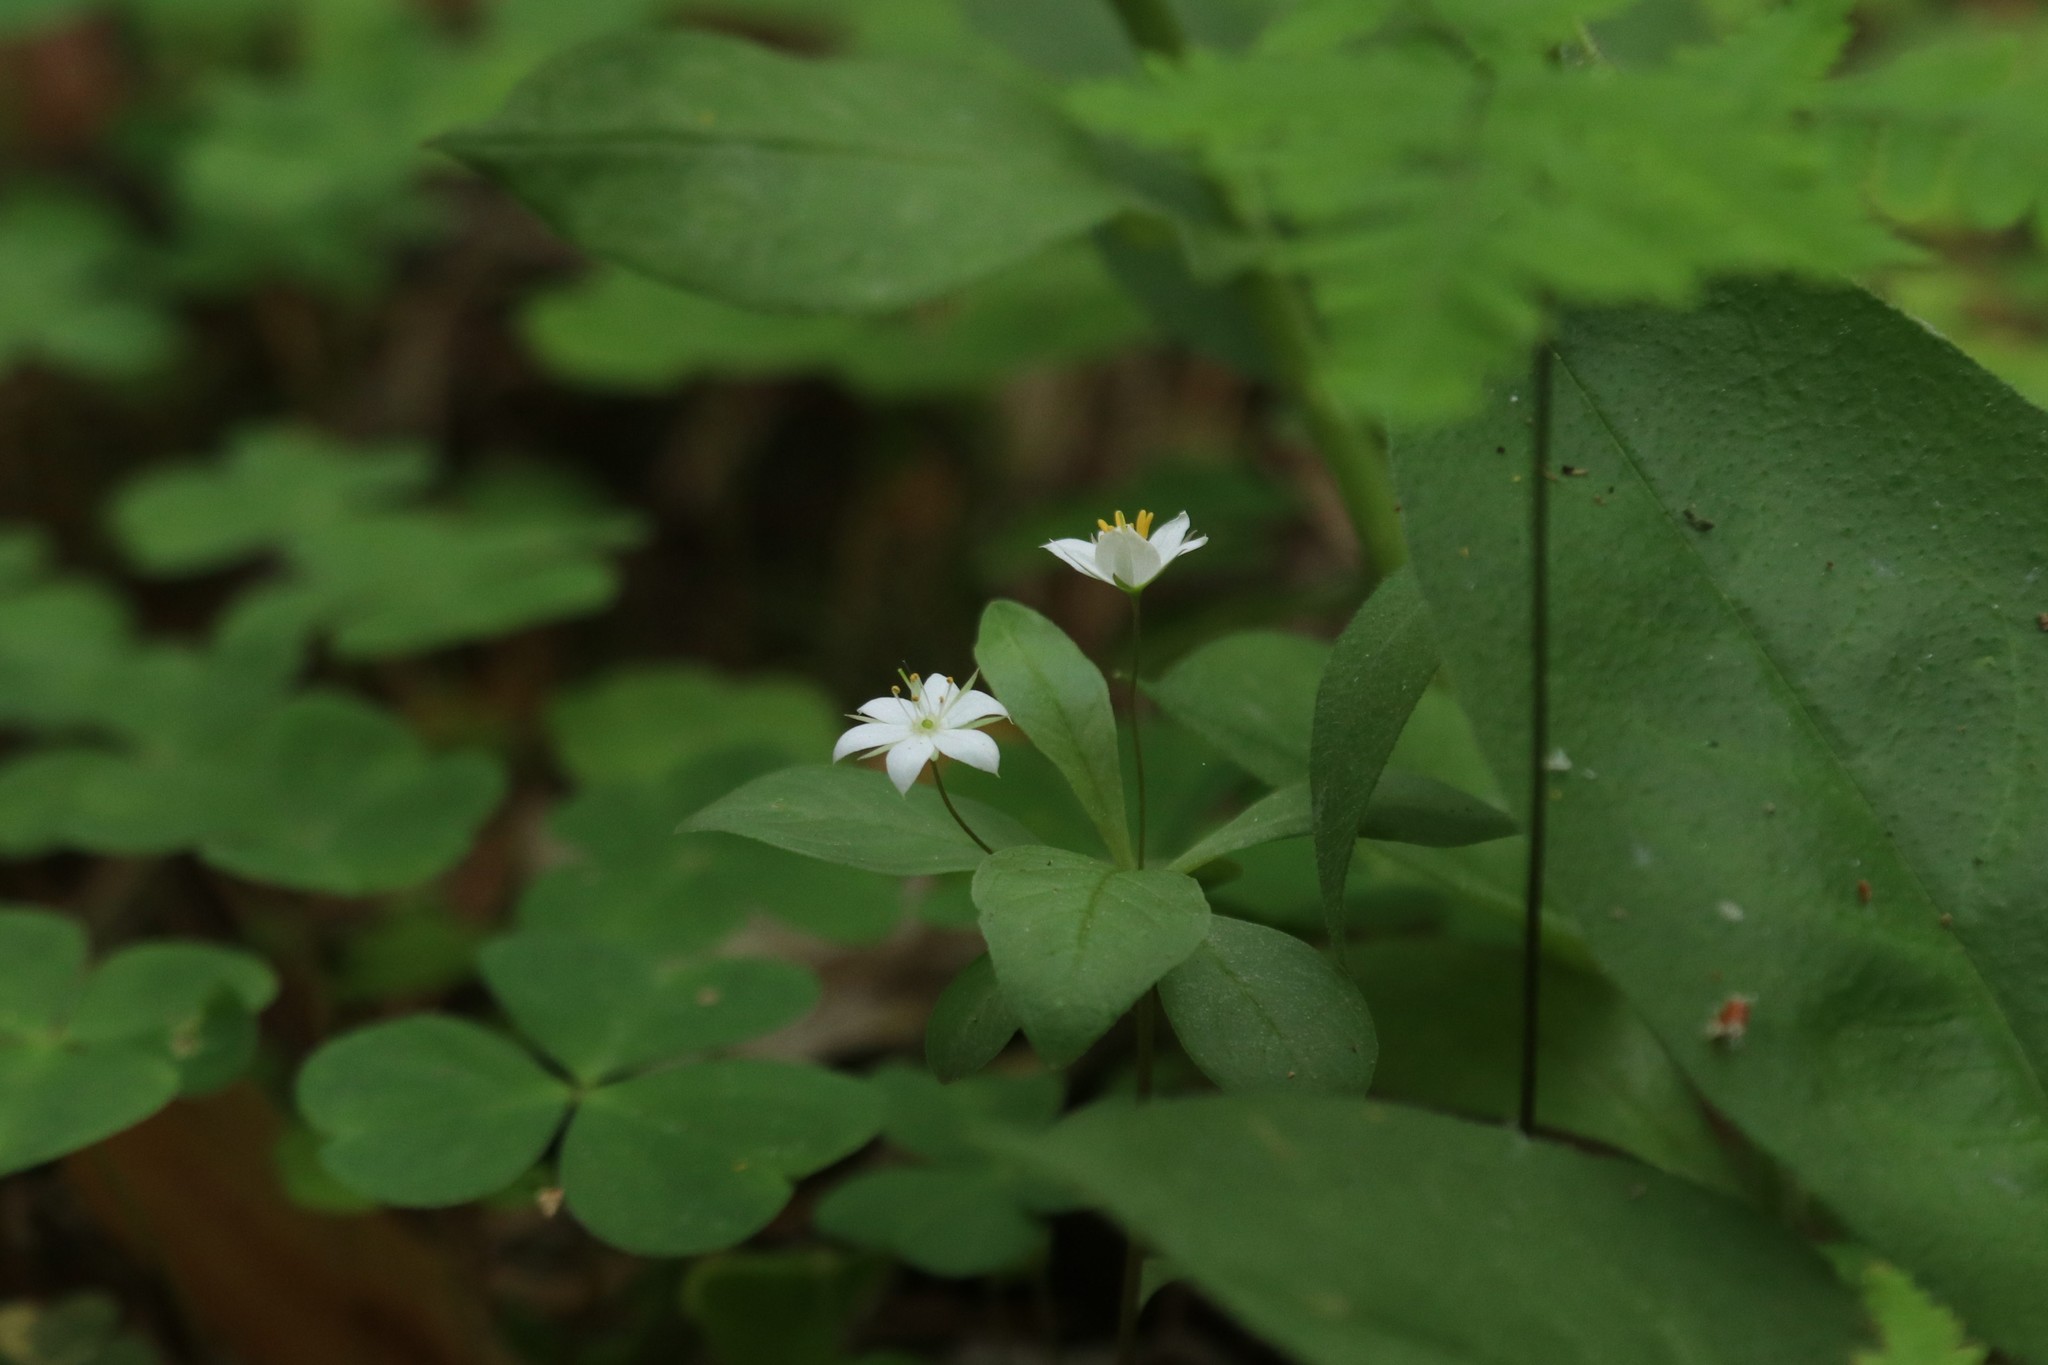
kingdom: Plantae
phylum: Tracheophyta
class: Magnoliopsida
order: Ericales
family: Primulaceae
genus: Lysimachia
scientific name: Lysimachia europaea
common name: Arctic starflower
